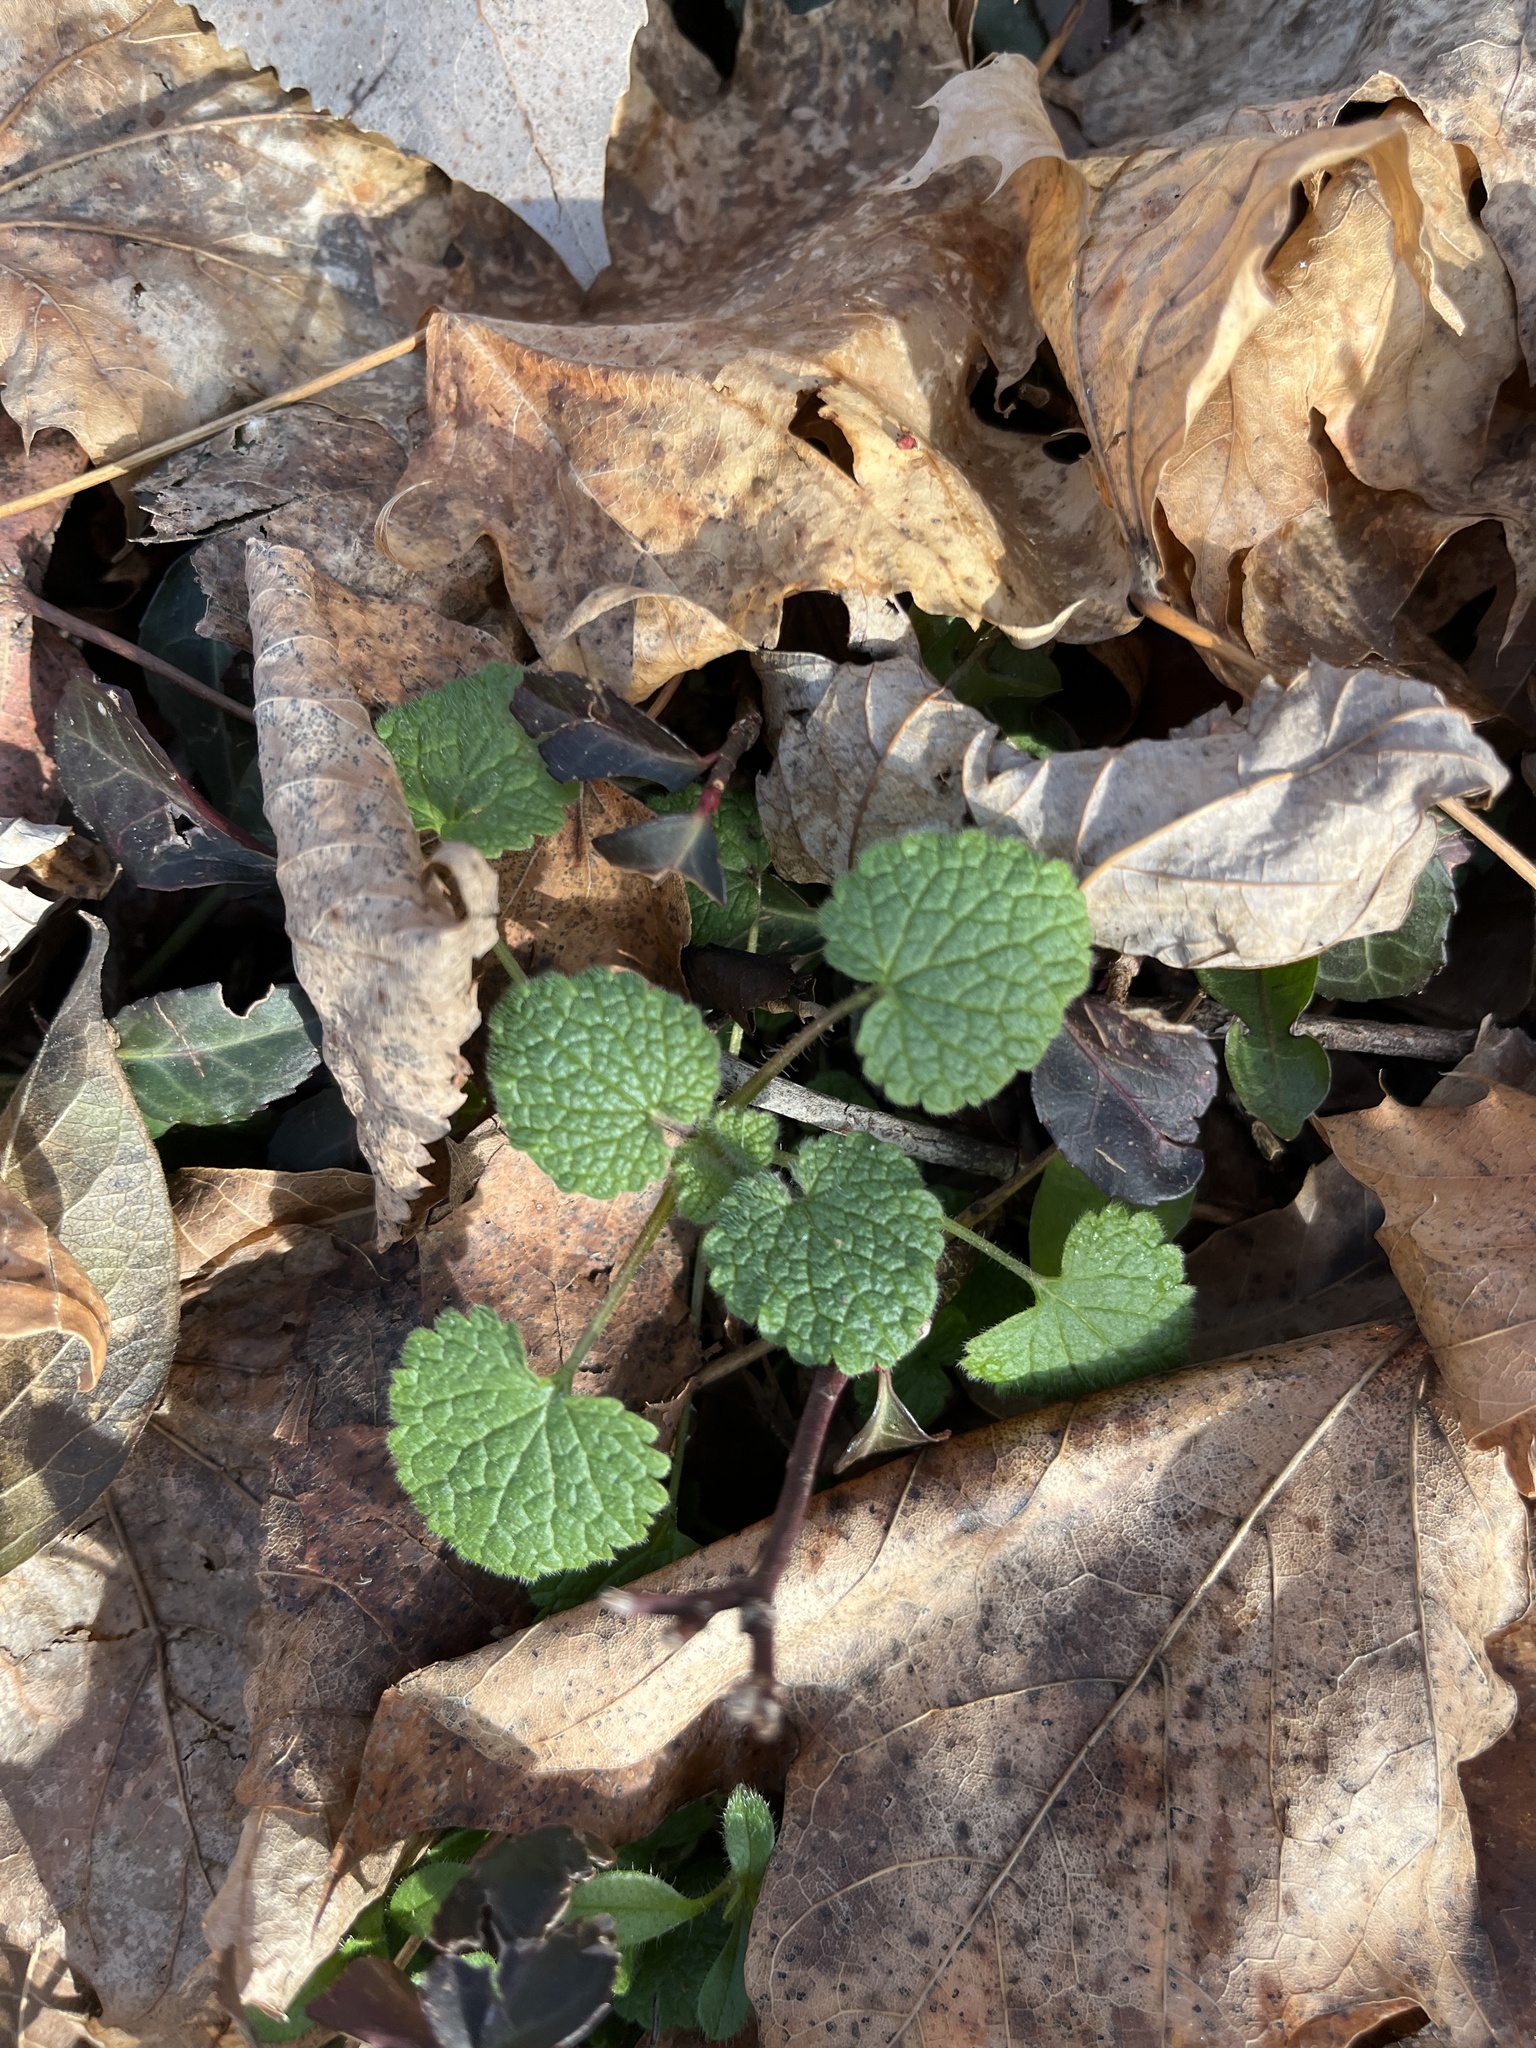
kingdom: Plantae
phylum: Tracheophyta
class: Magnoliopsida
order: Lamiales
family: Lamiaceae
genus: Lamium
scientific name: Lamium purpureum
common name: Red dead-nettle
